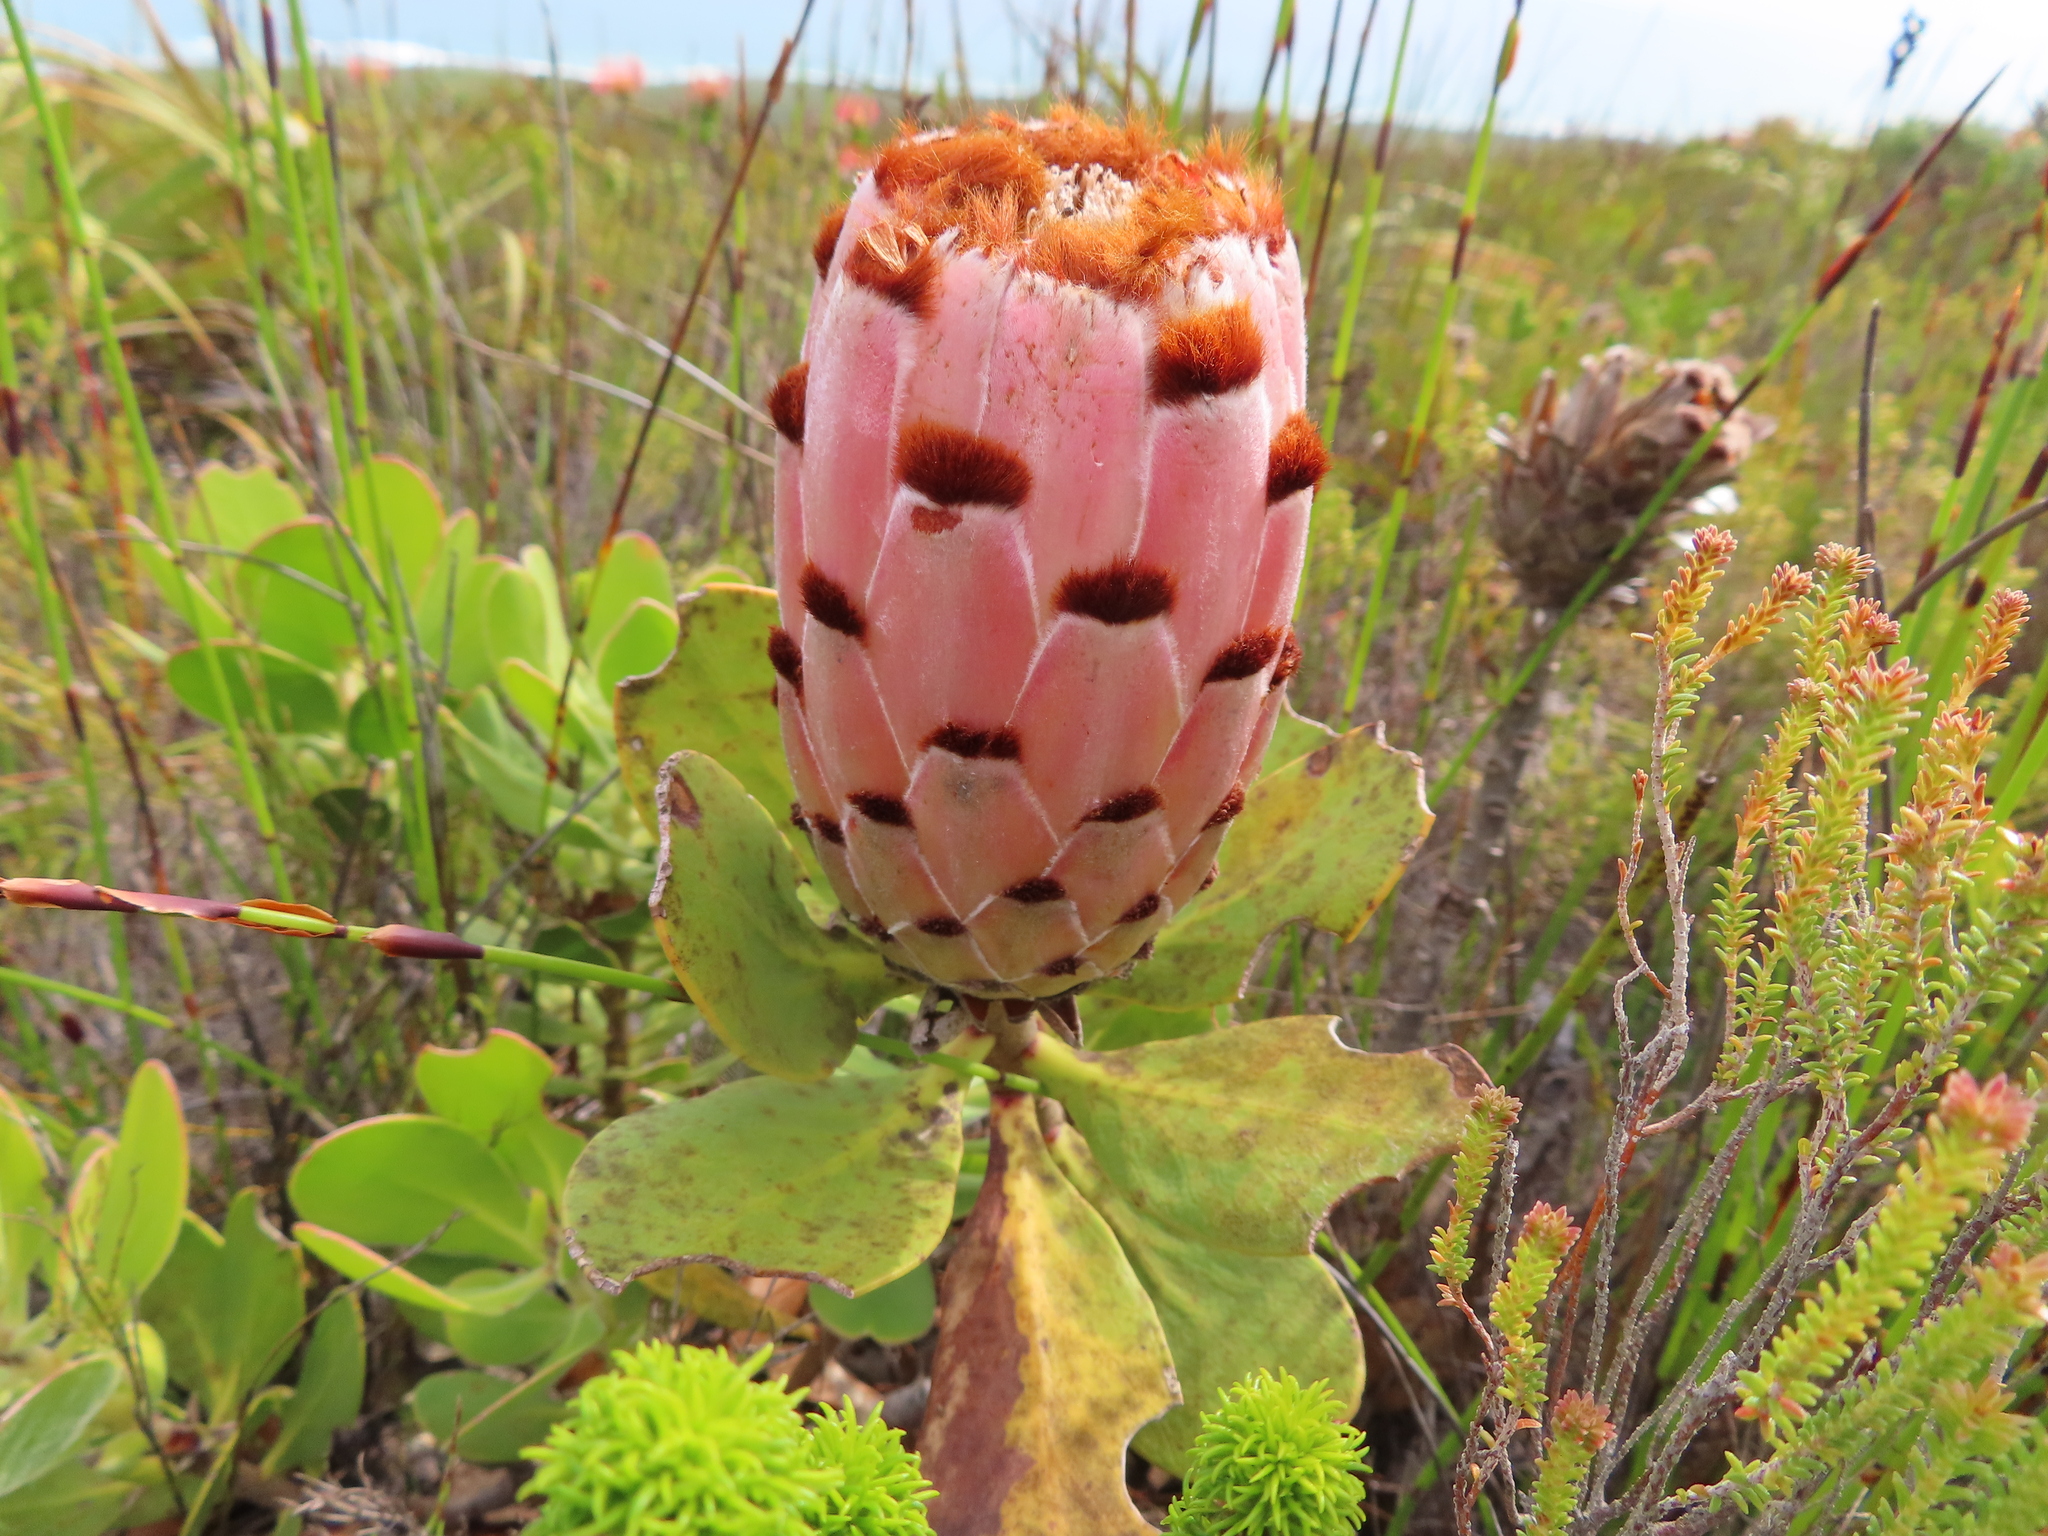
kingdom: Plantae
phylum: Tracheophyta
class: Magnoliopsida
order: Proteales
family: Proteaceae
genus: Protea
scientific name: Protea speciosa
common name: Brown-beard sugarbush
